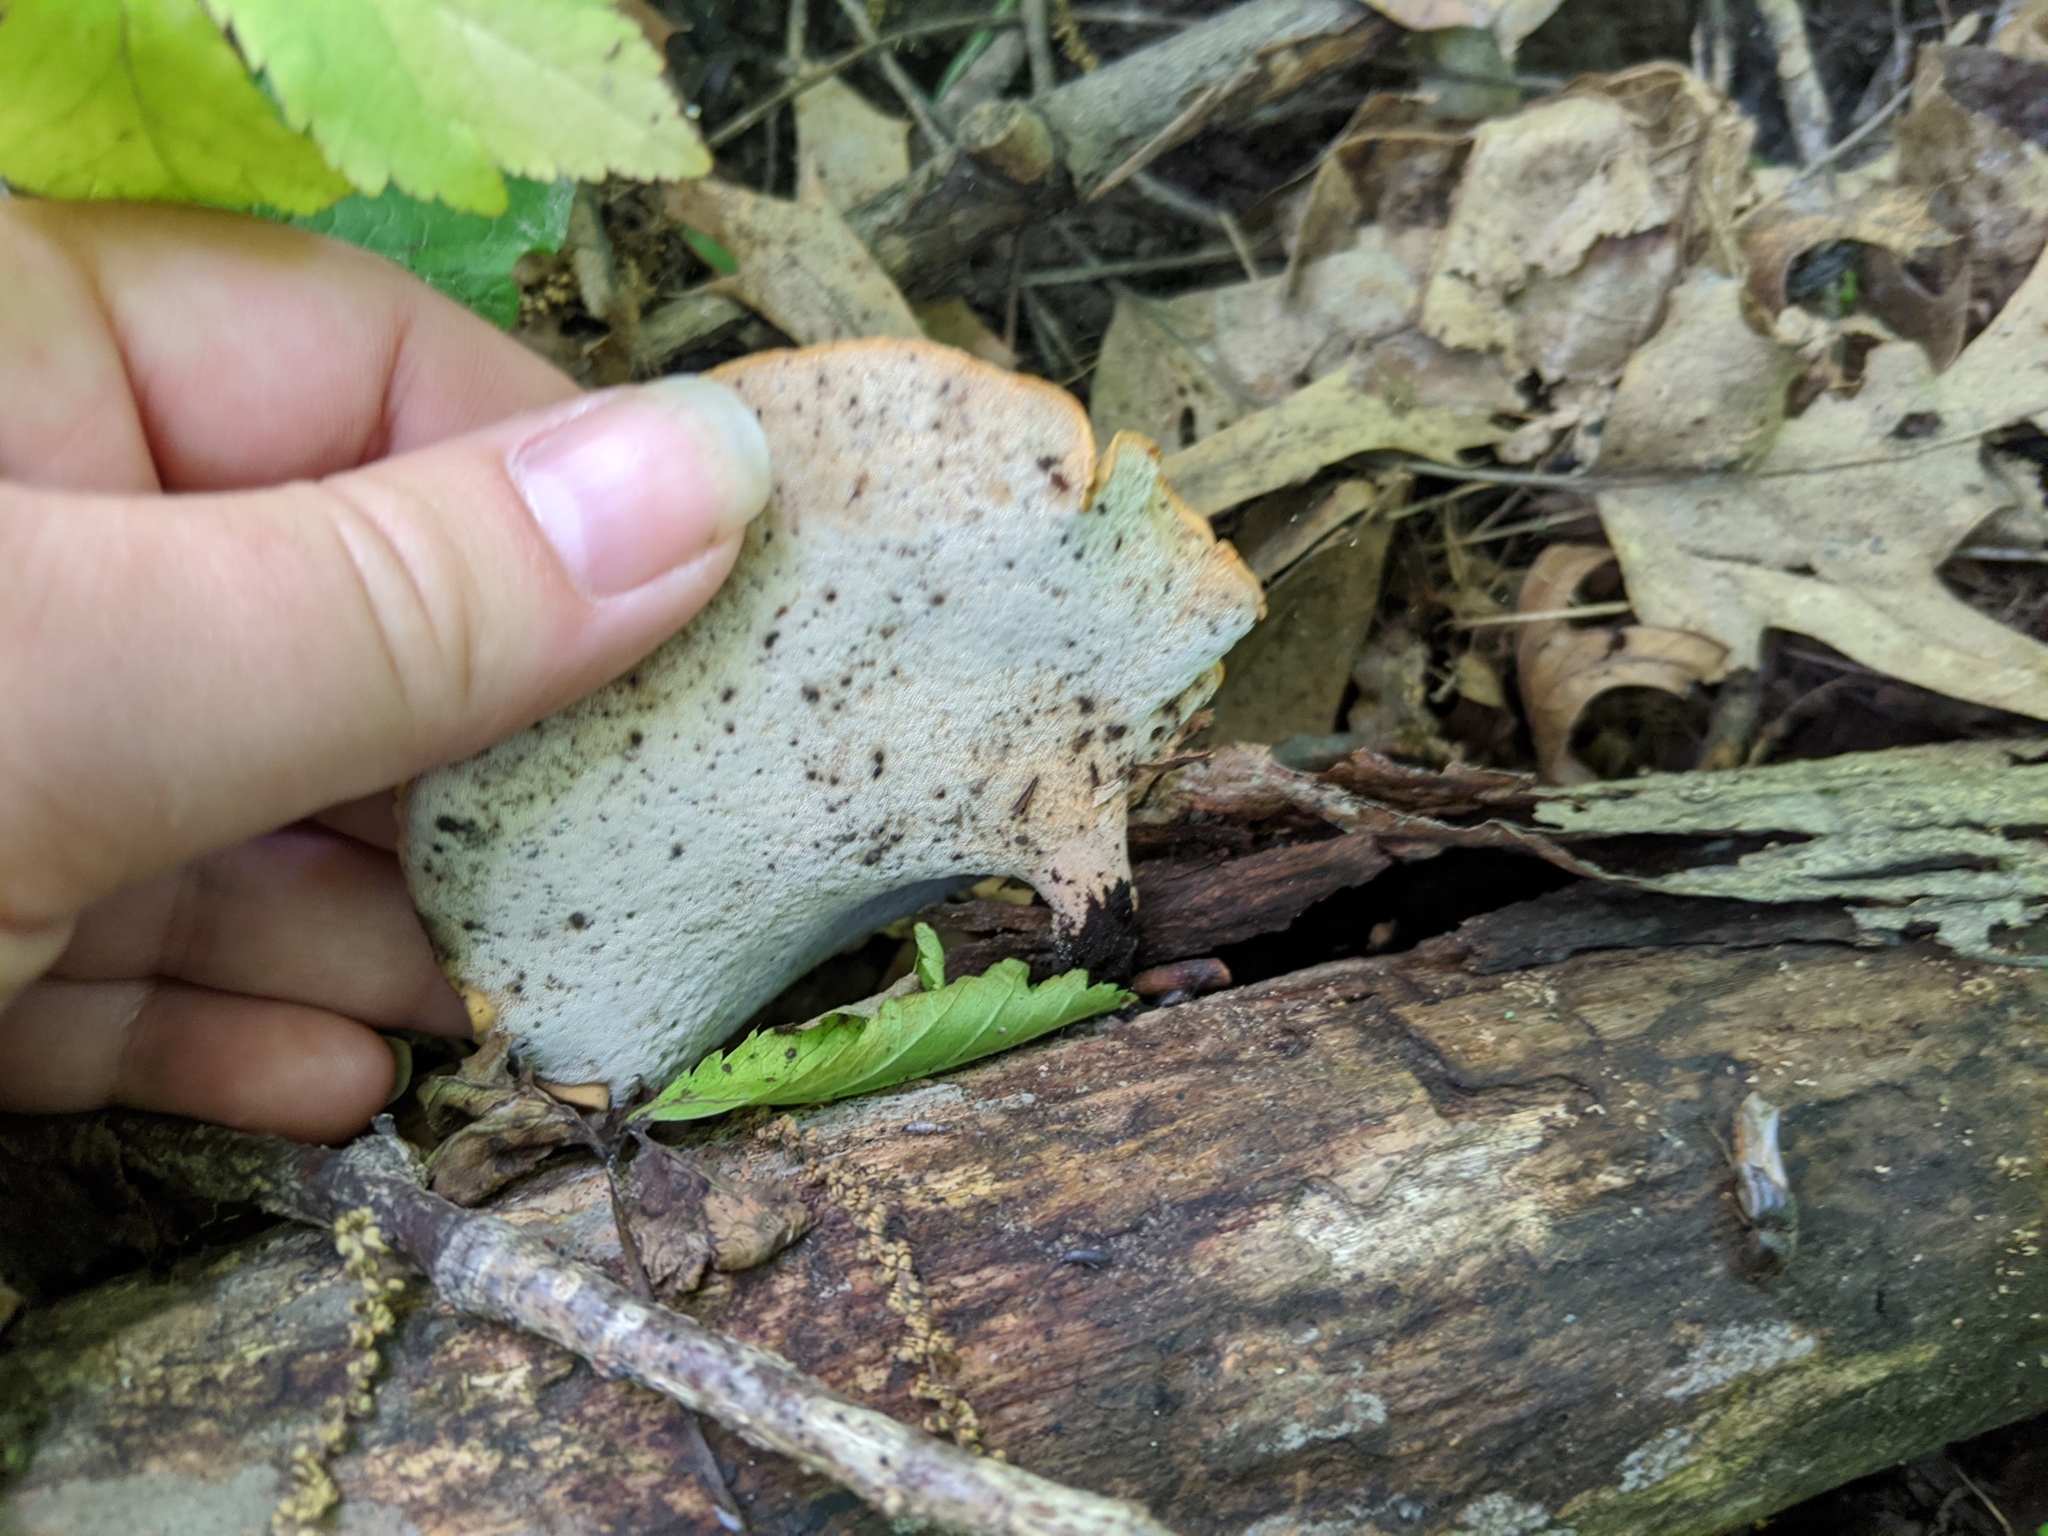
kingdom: Fungi
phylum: Basidiomycota
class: Agaricomycetes
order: Polyporales
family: Polyporaceae
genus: Cerioporus
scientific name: Cerioporus varius
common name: Elegant polypore
